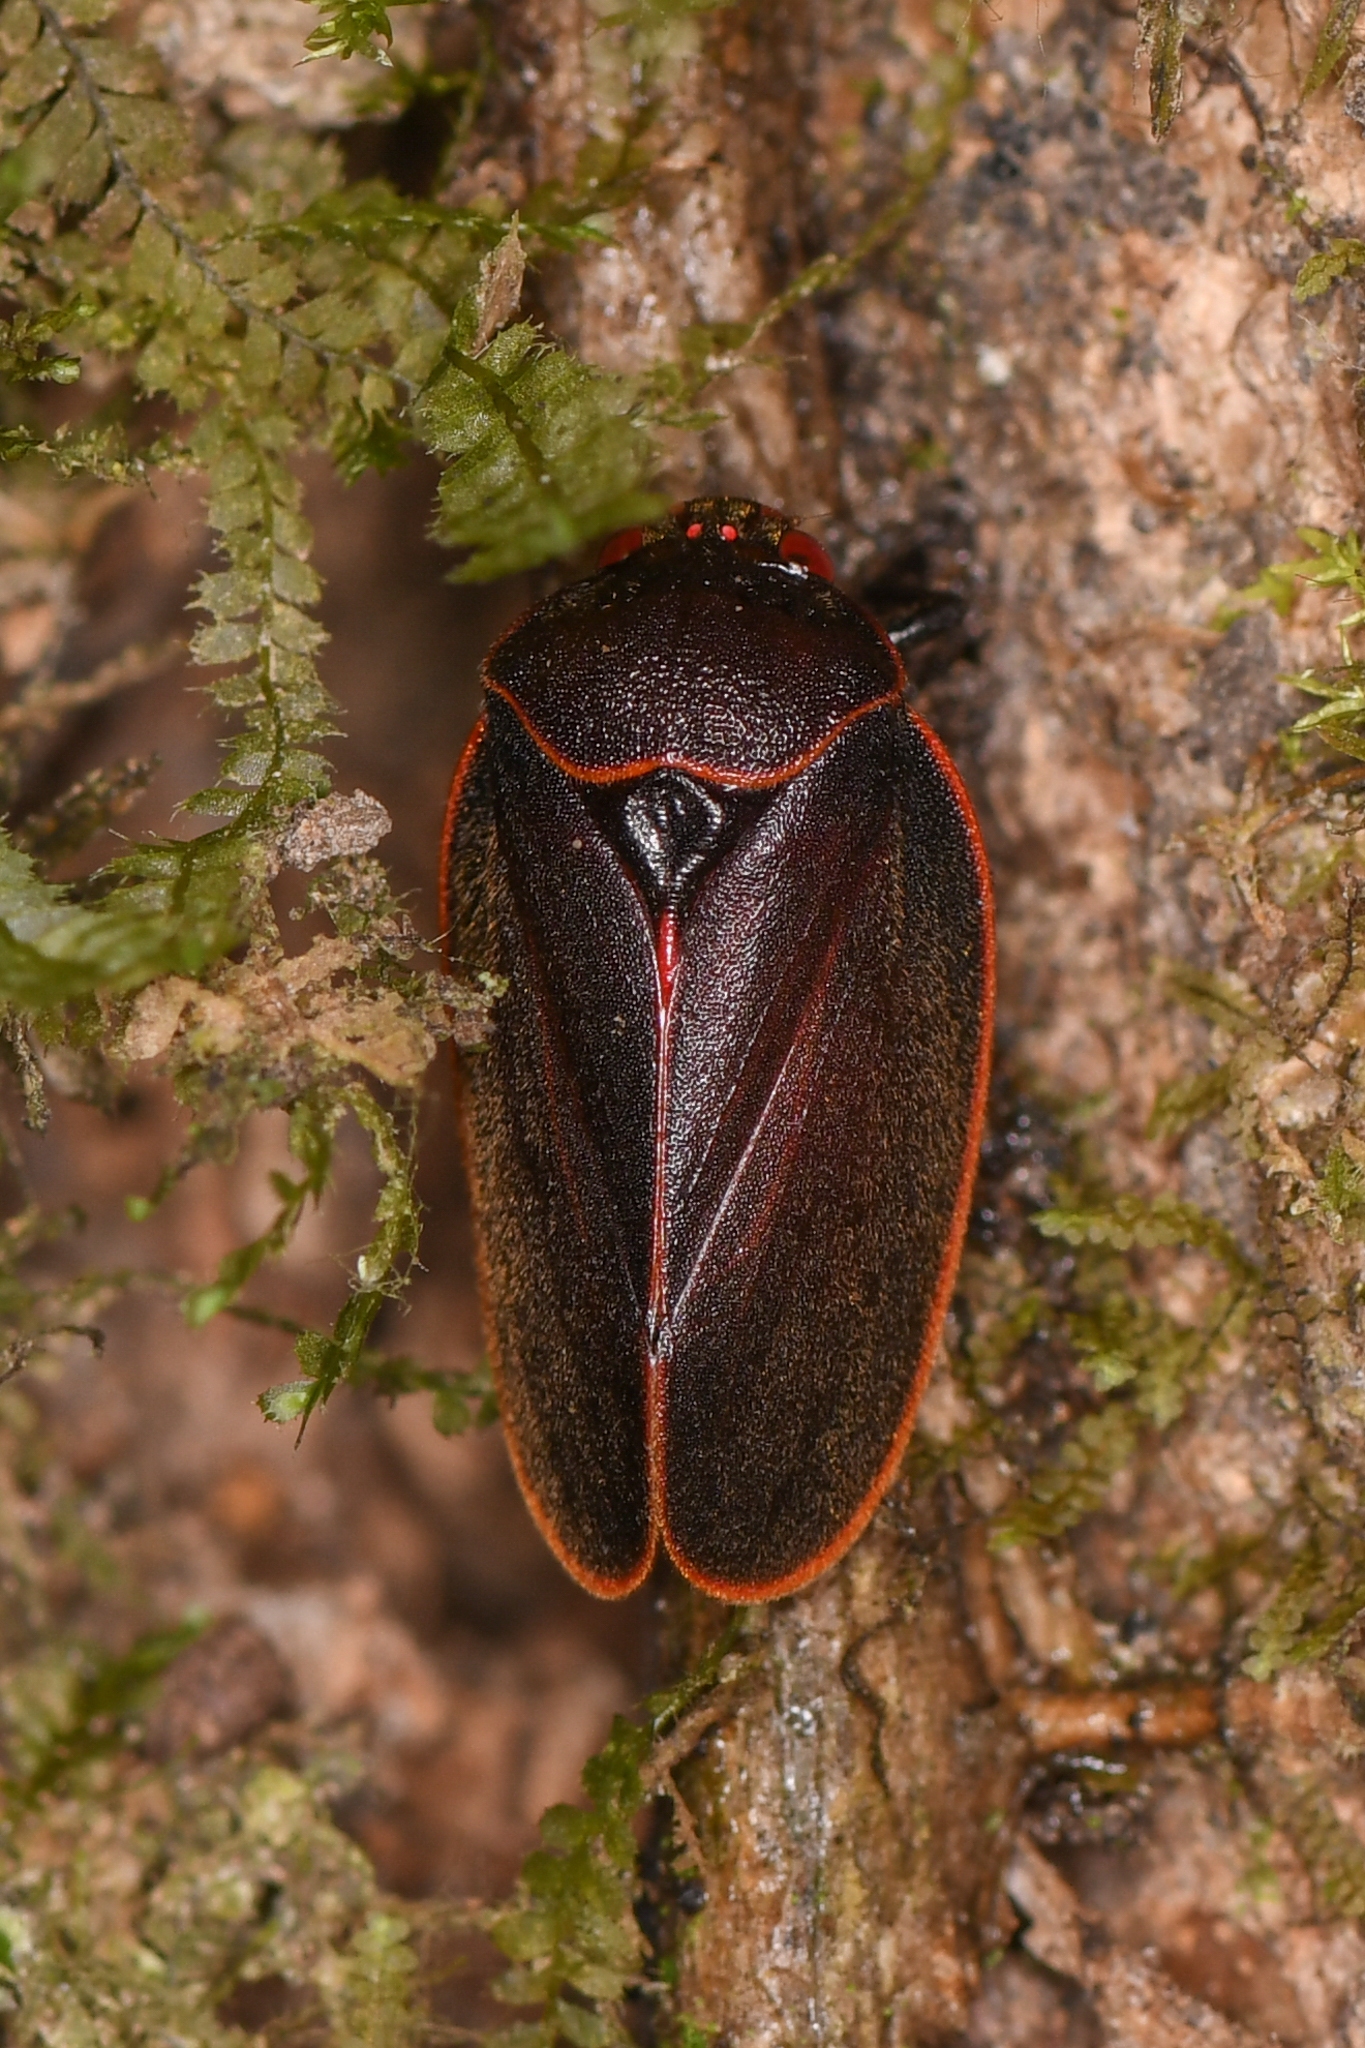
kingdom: Animalia
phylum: Arthropoda
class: Insecta
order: Hemiptera
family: Cercopidae
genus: Iphirhina
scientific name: Iphirhina limbata
